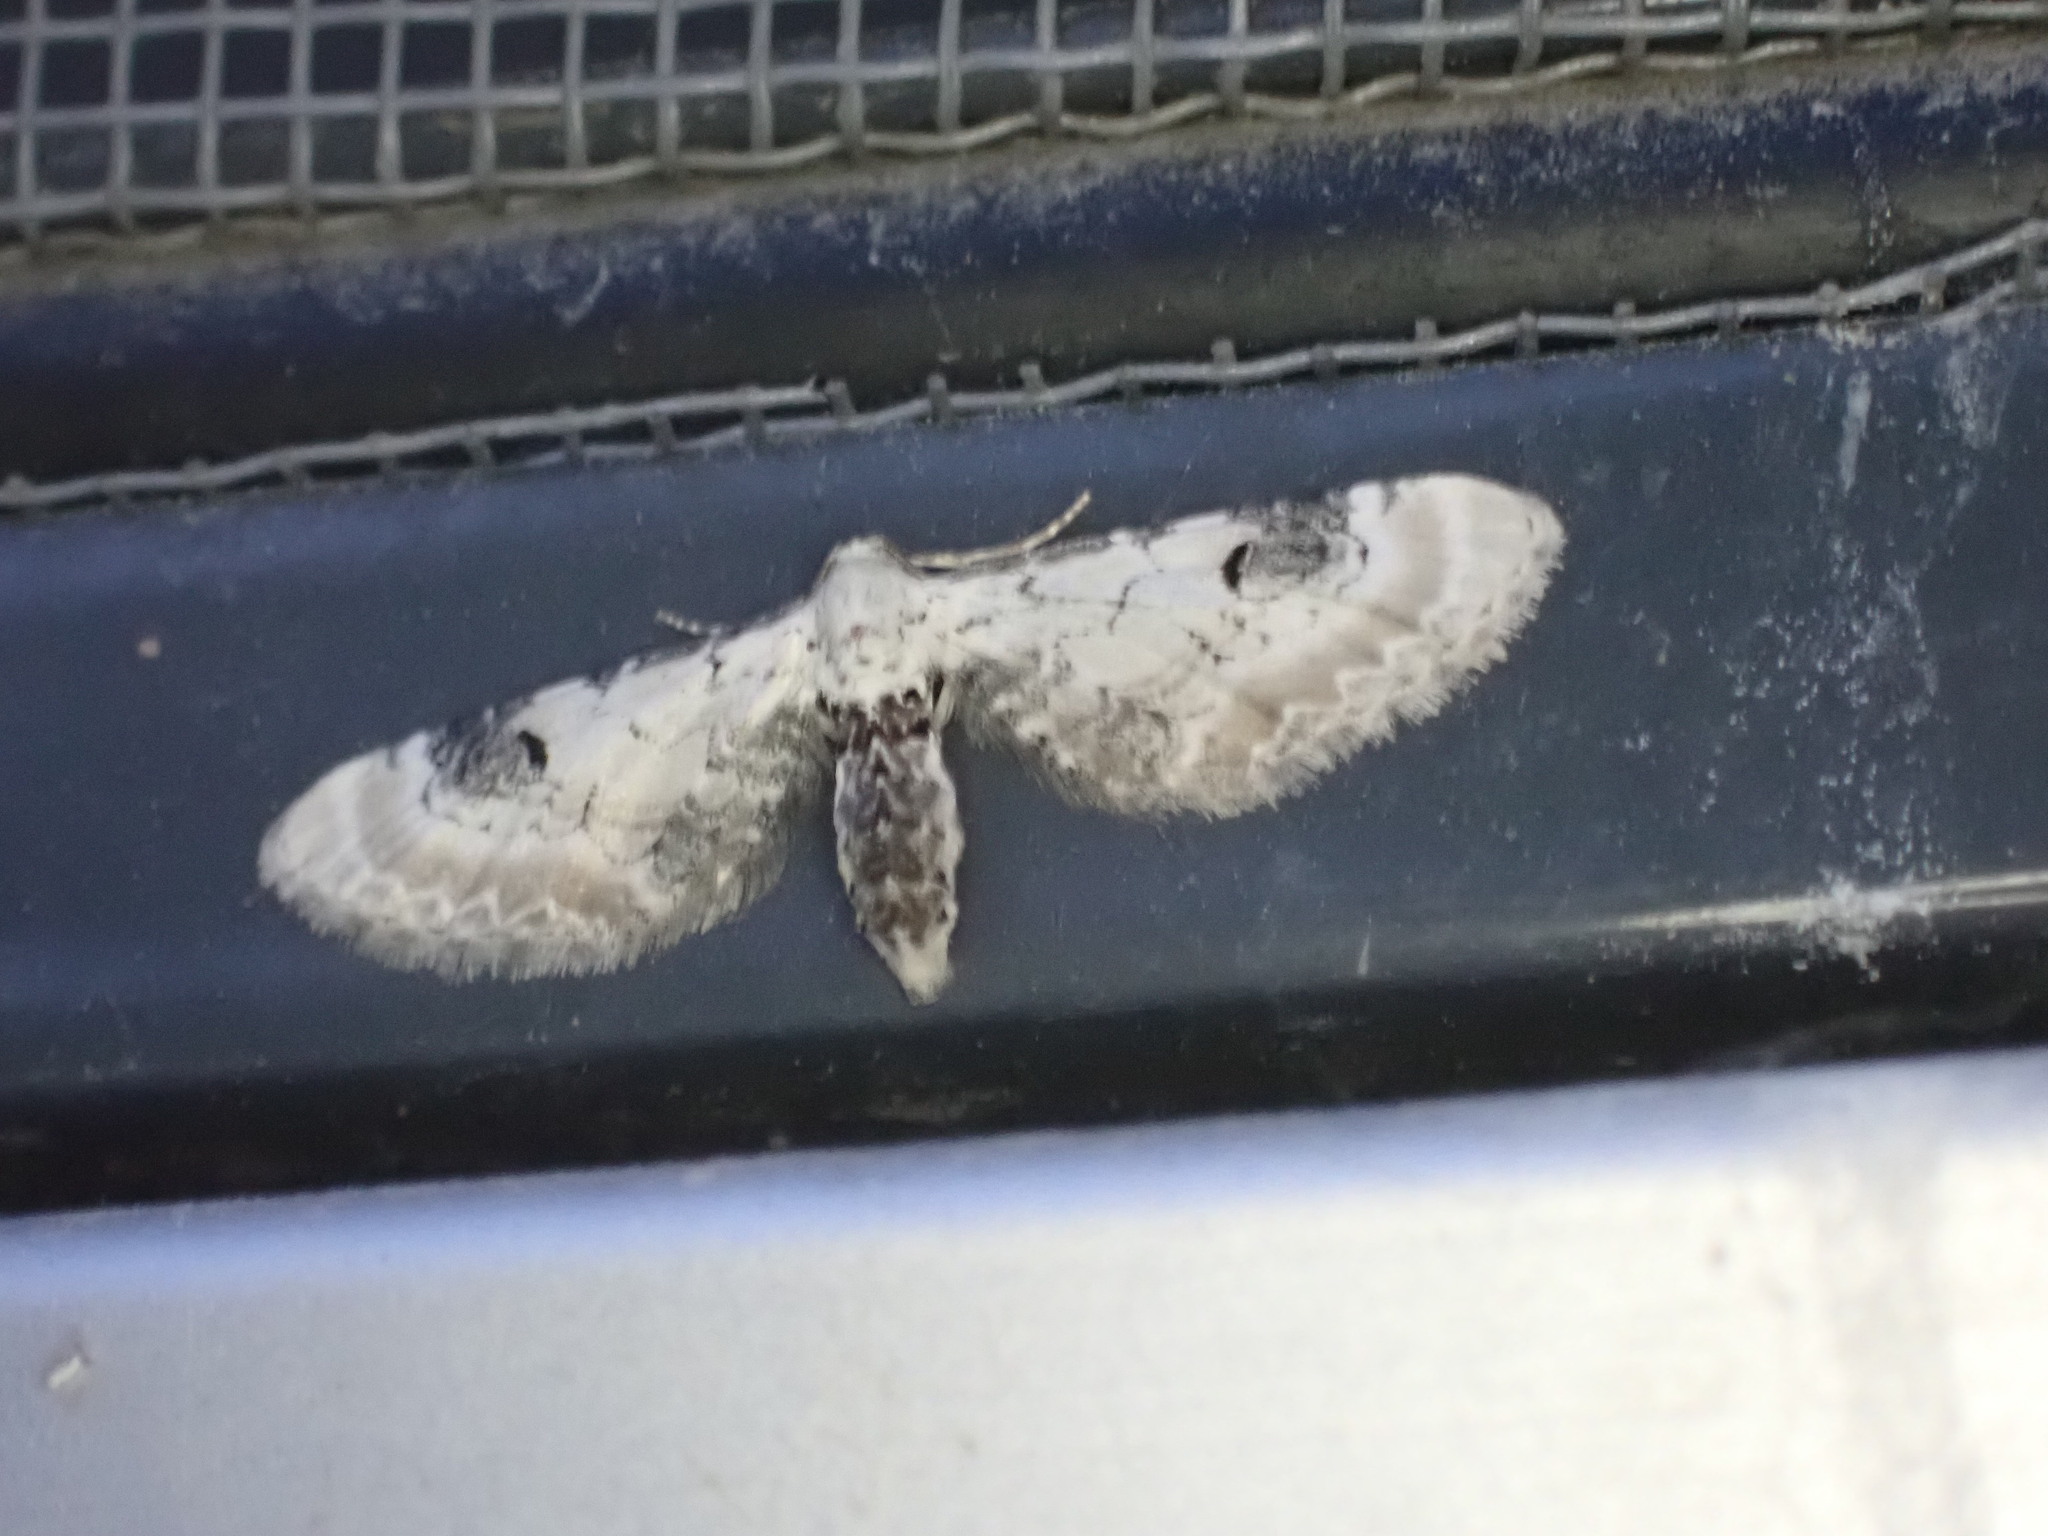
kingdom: Animalia
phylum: Arthropoda
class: Insecta
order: Lepidoptera
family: Geometridae
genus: Eupithecia
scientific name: Eupithecia centaureata
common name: Lime-speck pug
